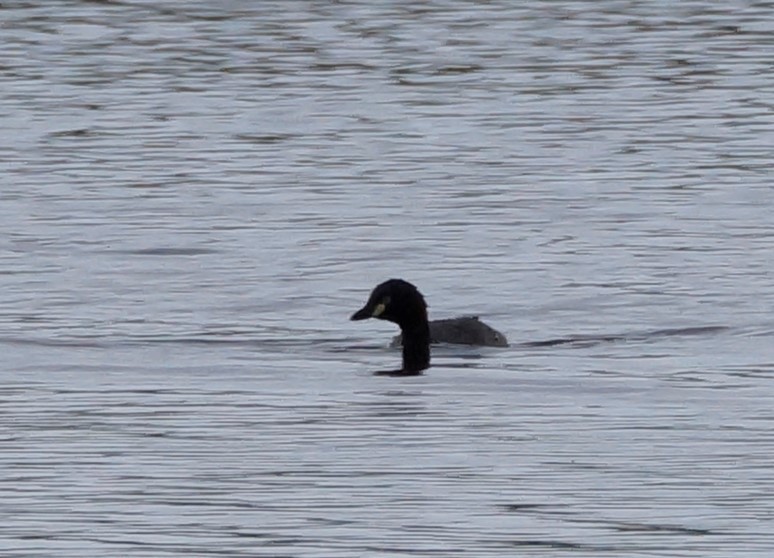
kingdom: Animalia
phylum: Chordata
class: Aves
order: Podicipediformes
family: Podicipedidae
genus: Tachybaptus
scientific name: Tachybaptus novaehollandiae
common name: Australasian grebe
